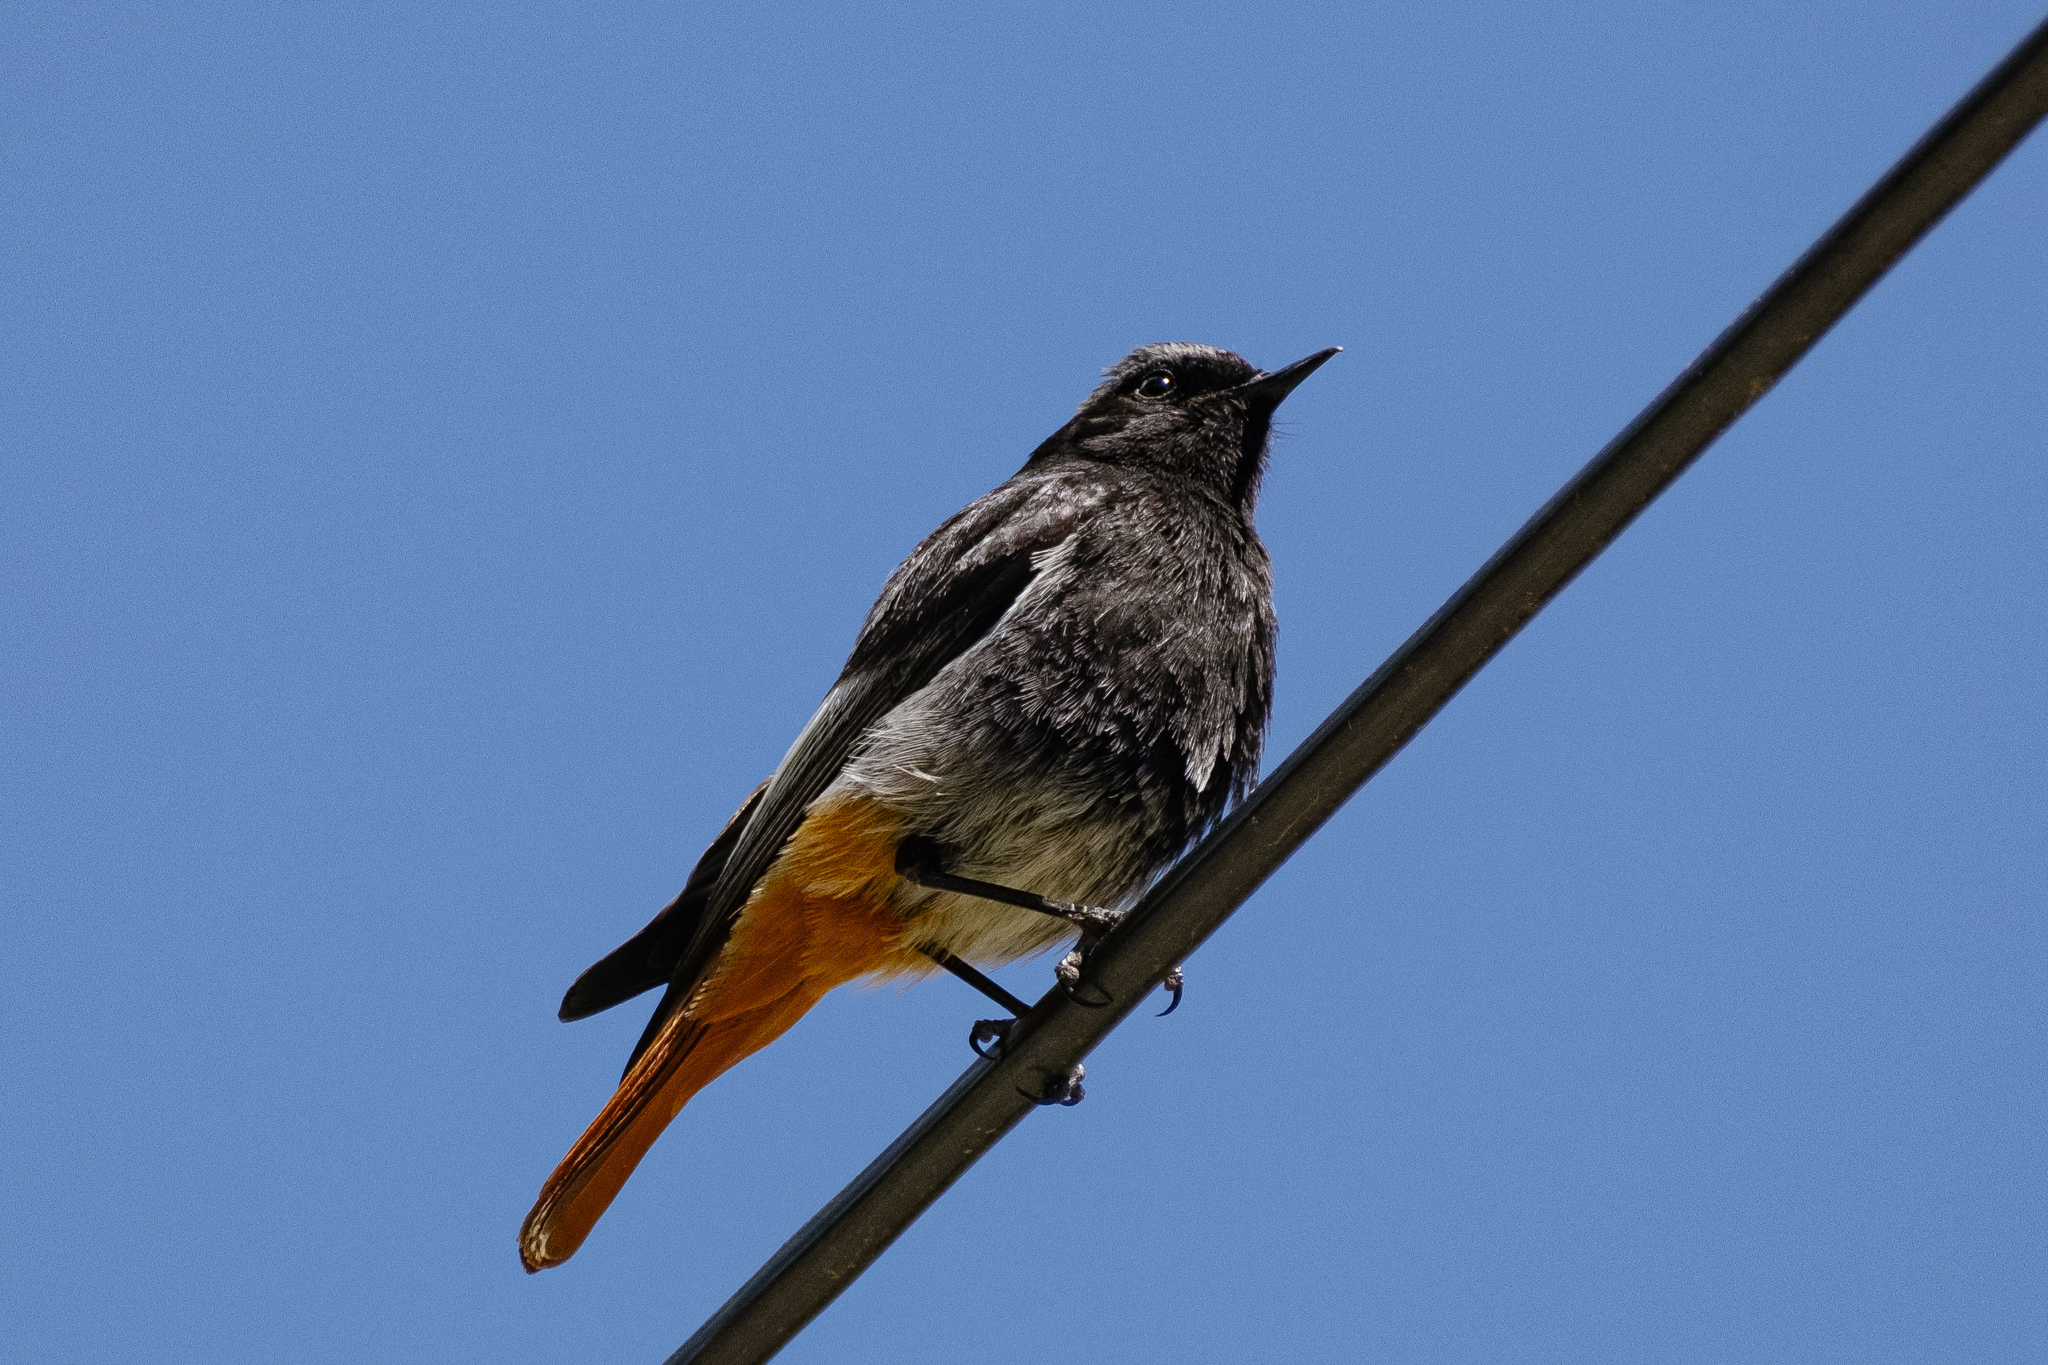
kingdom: Animalia
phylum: Chordata
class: Aves
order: Passeriformes
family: Muscicapidae
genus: Phoenicurus
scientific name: Phoenicurus ochruros
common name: Black redstart
